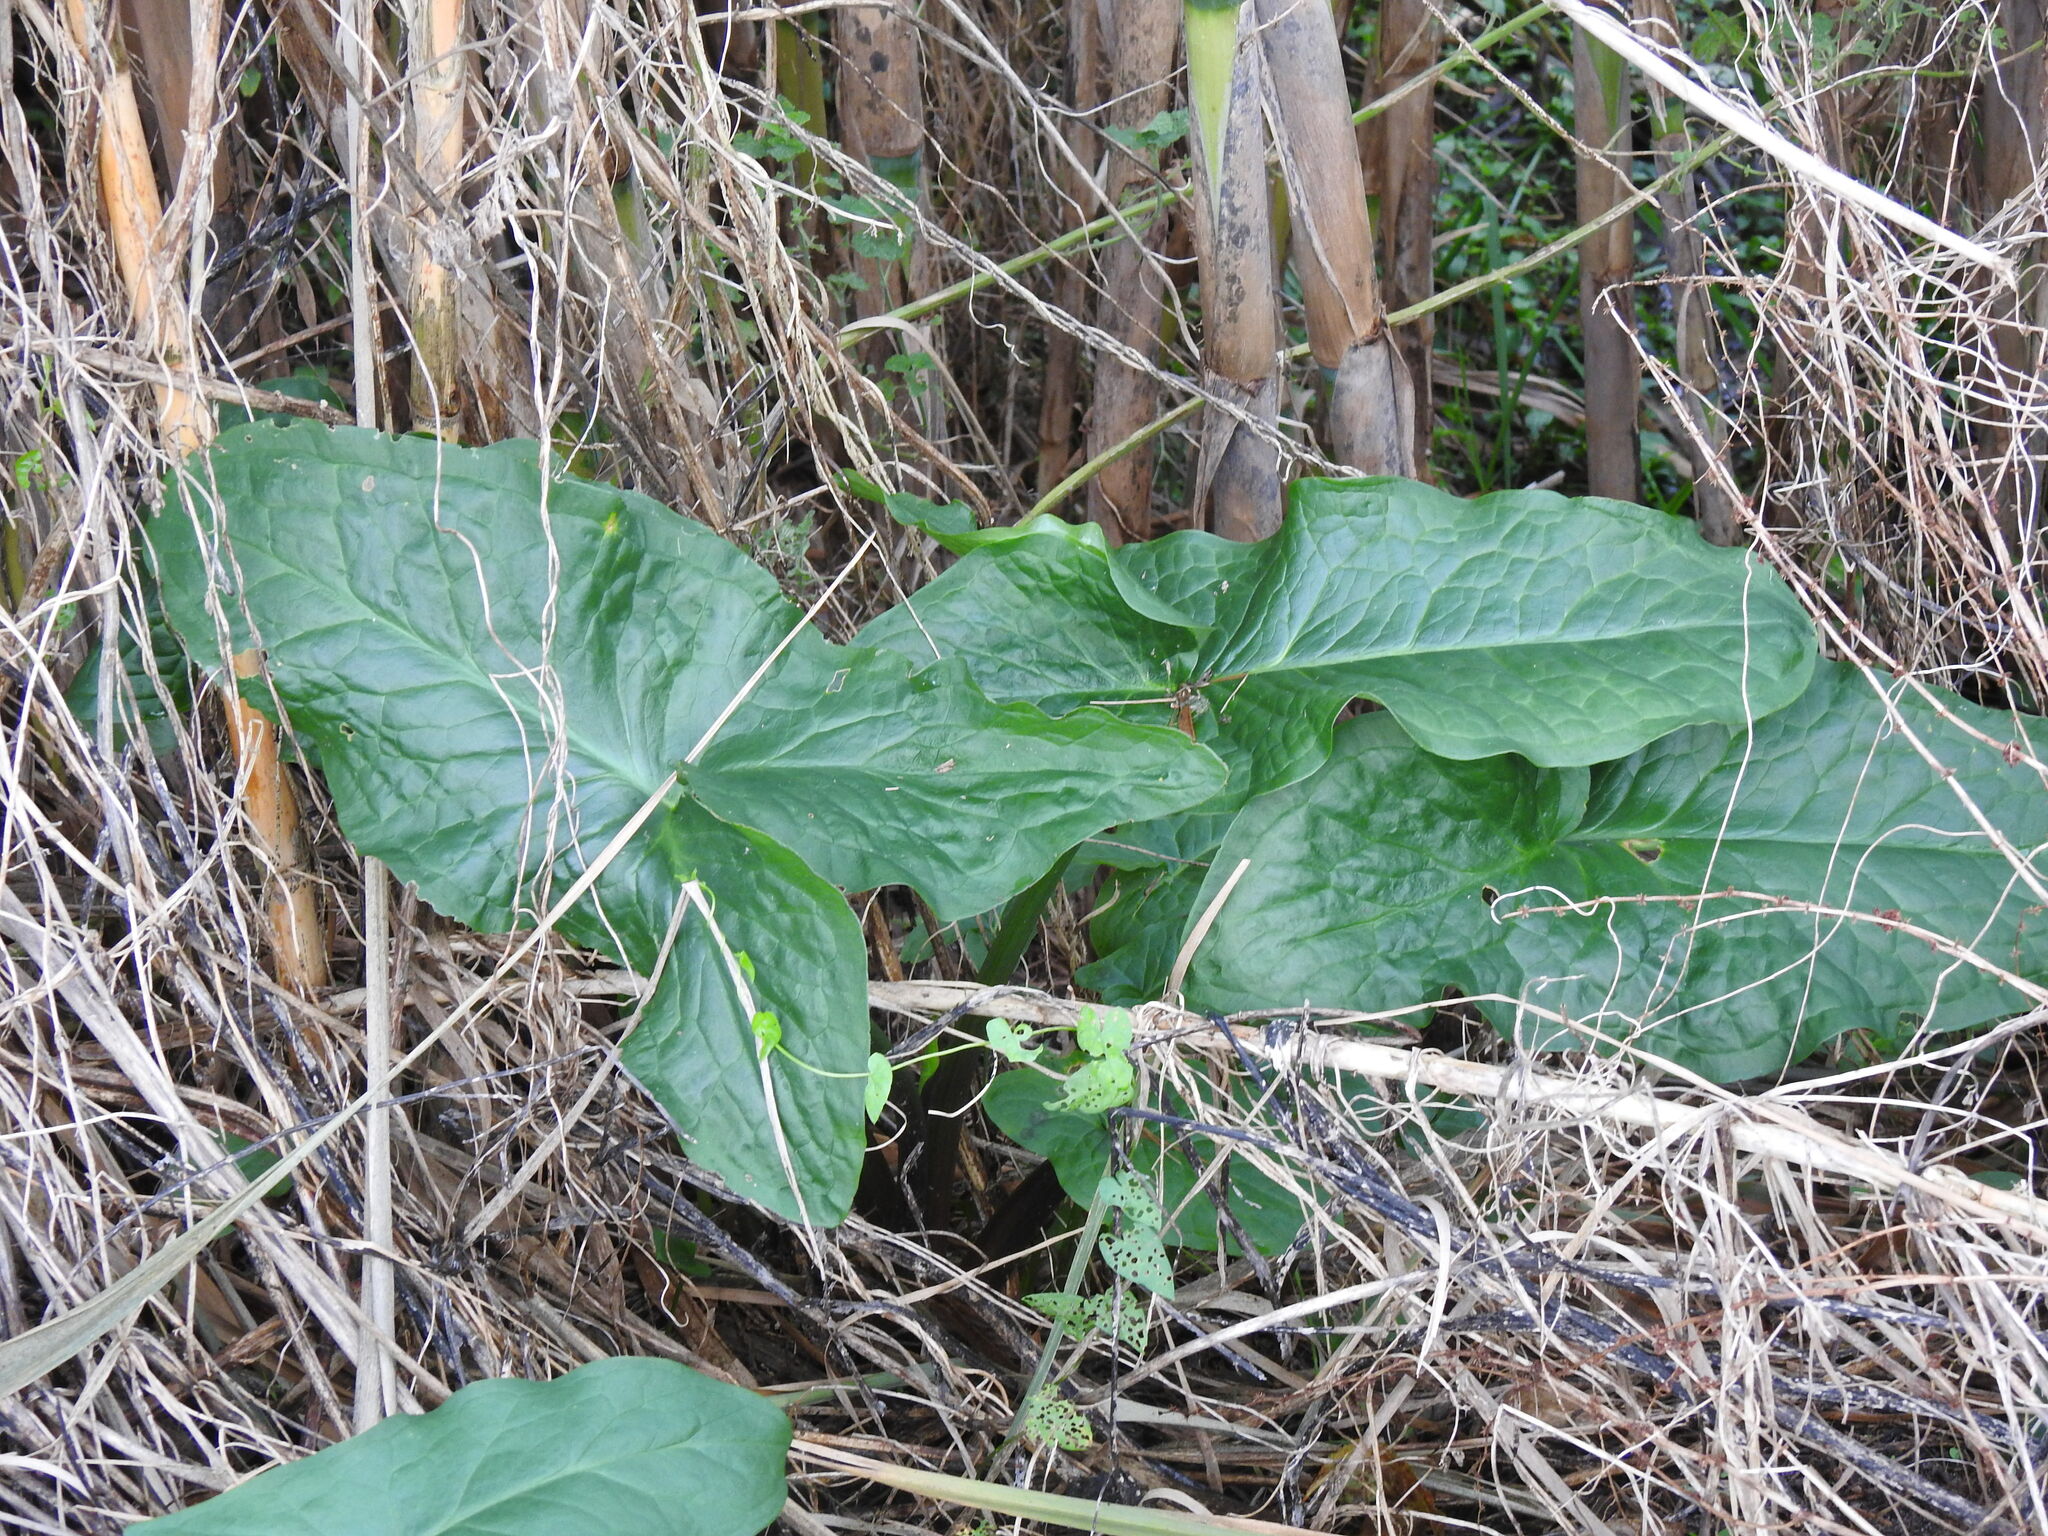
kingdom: Plantae
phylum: Tracheophyta
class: Liliopsida
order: Alismatales
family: Araceae
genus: Arum
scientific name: Arum italicum
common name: Italian lords-and-ladies
